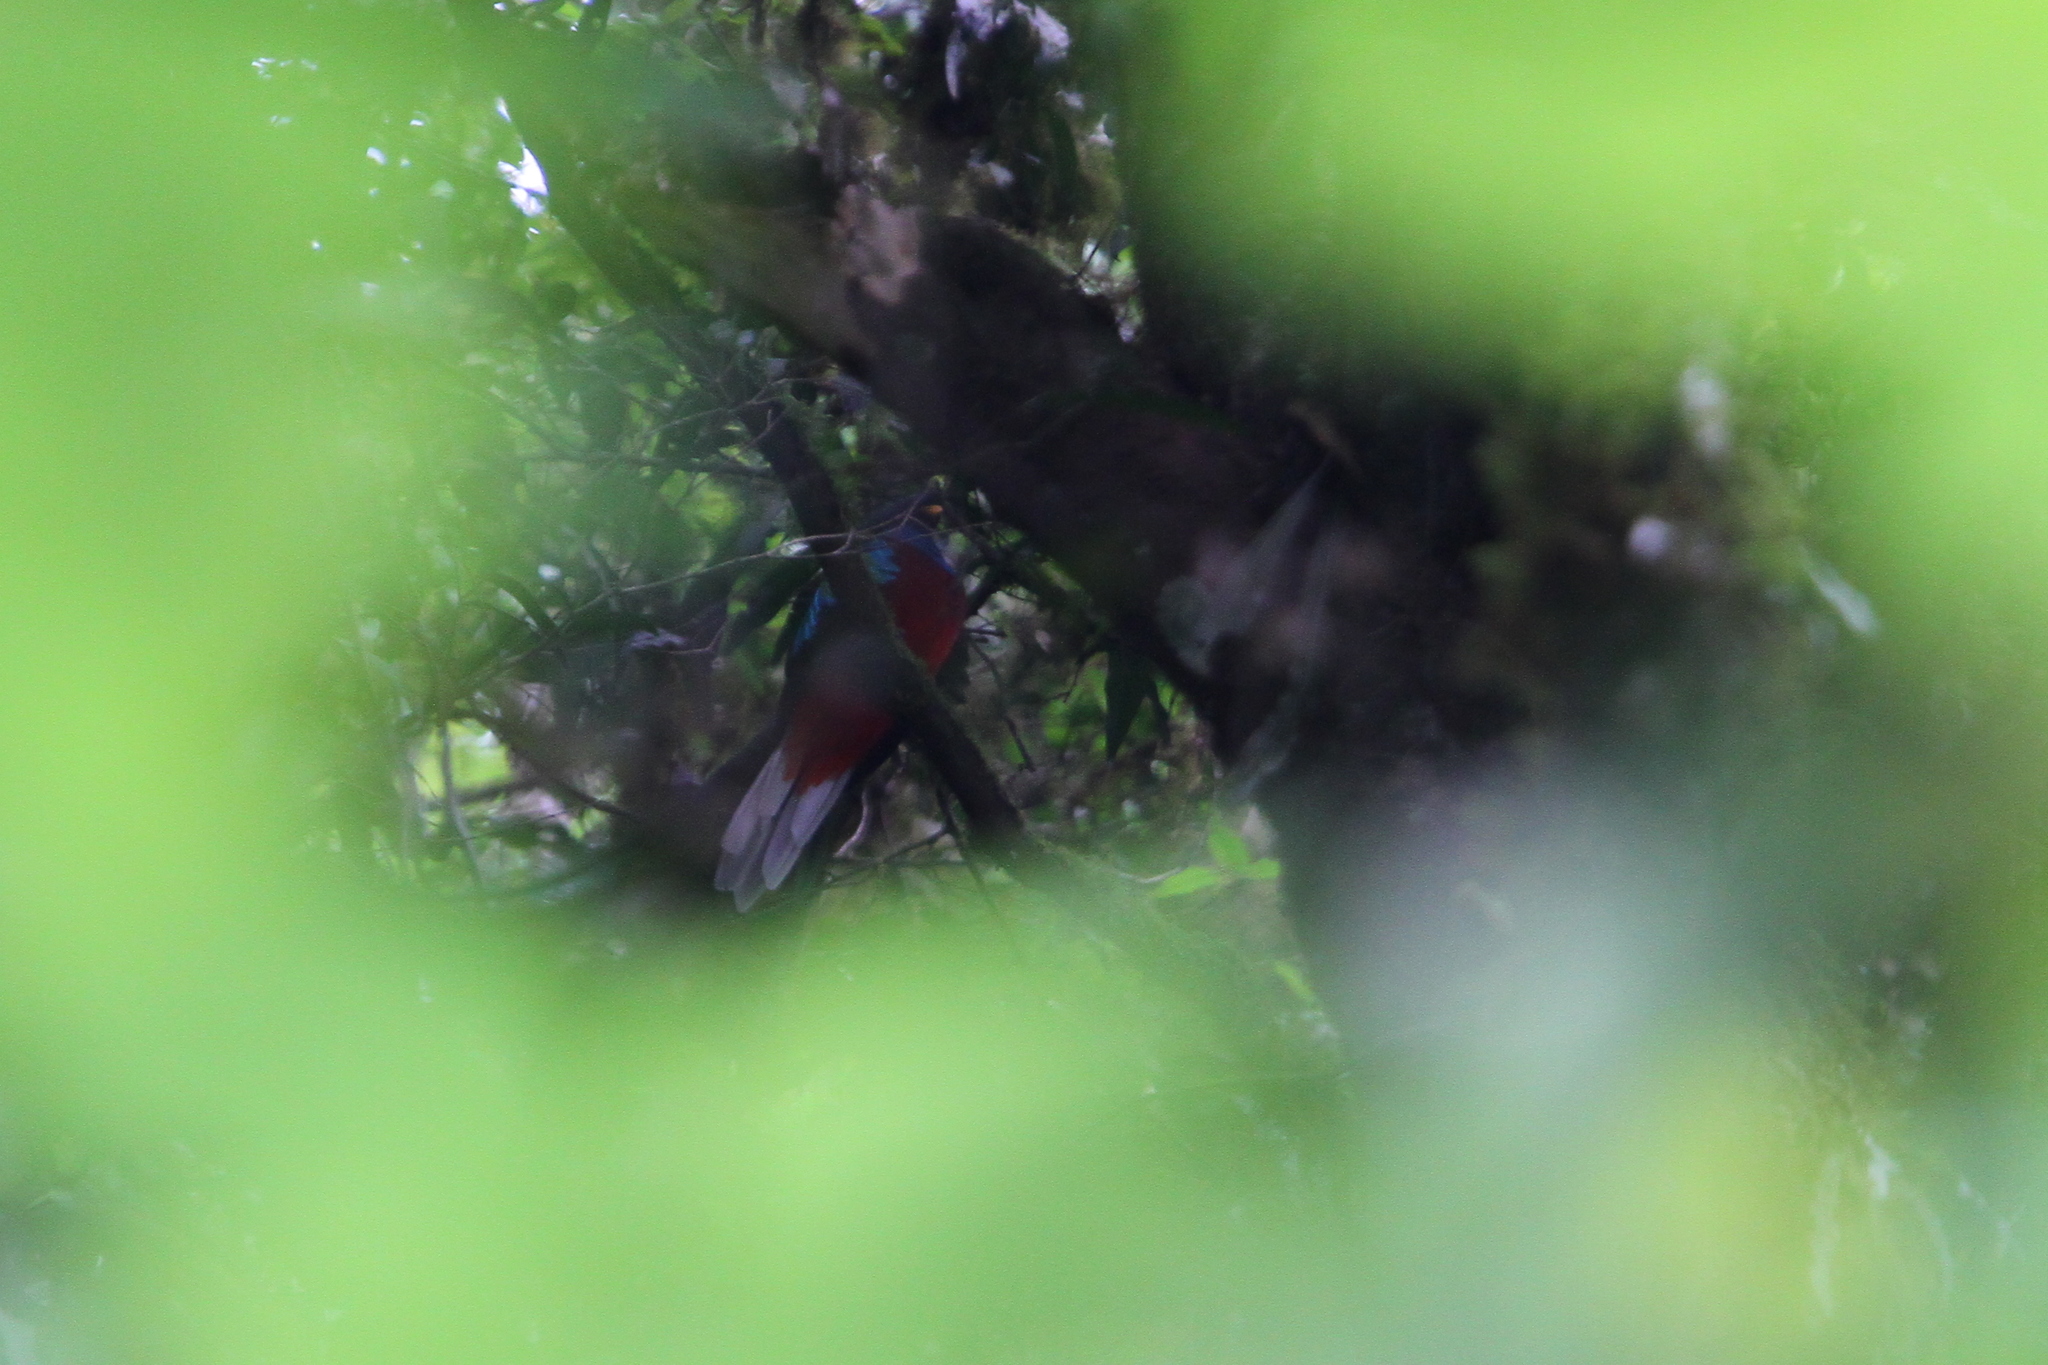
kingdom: Animalia
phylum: Chordata
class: Aves
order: Trogoniformes
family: Trogonidae
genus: Pharomachrus
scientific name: Pharomachrus mocinno
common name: Resplendent quetzal
